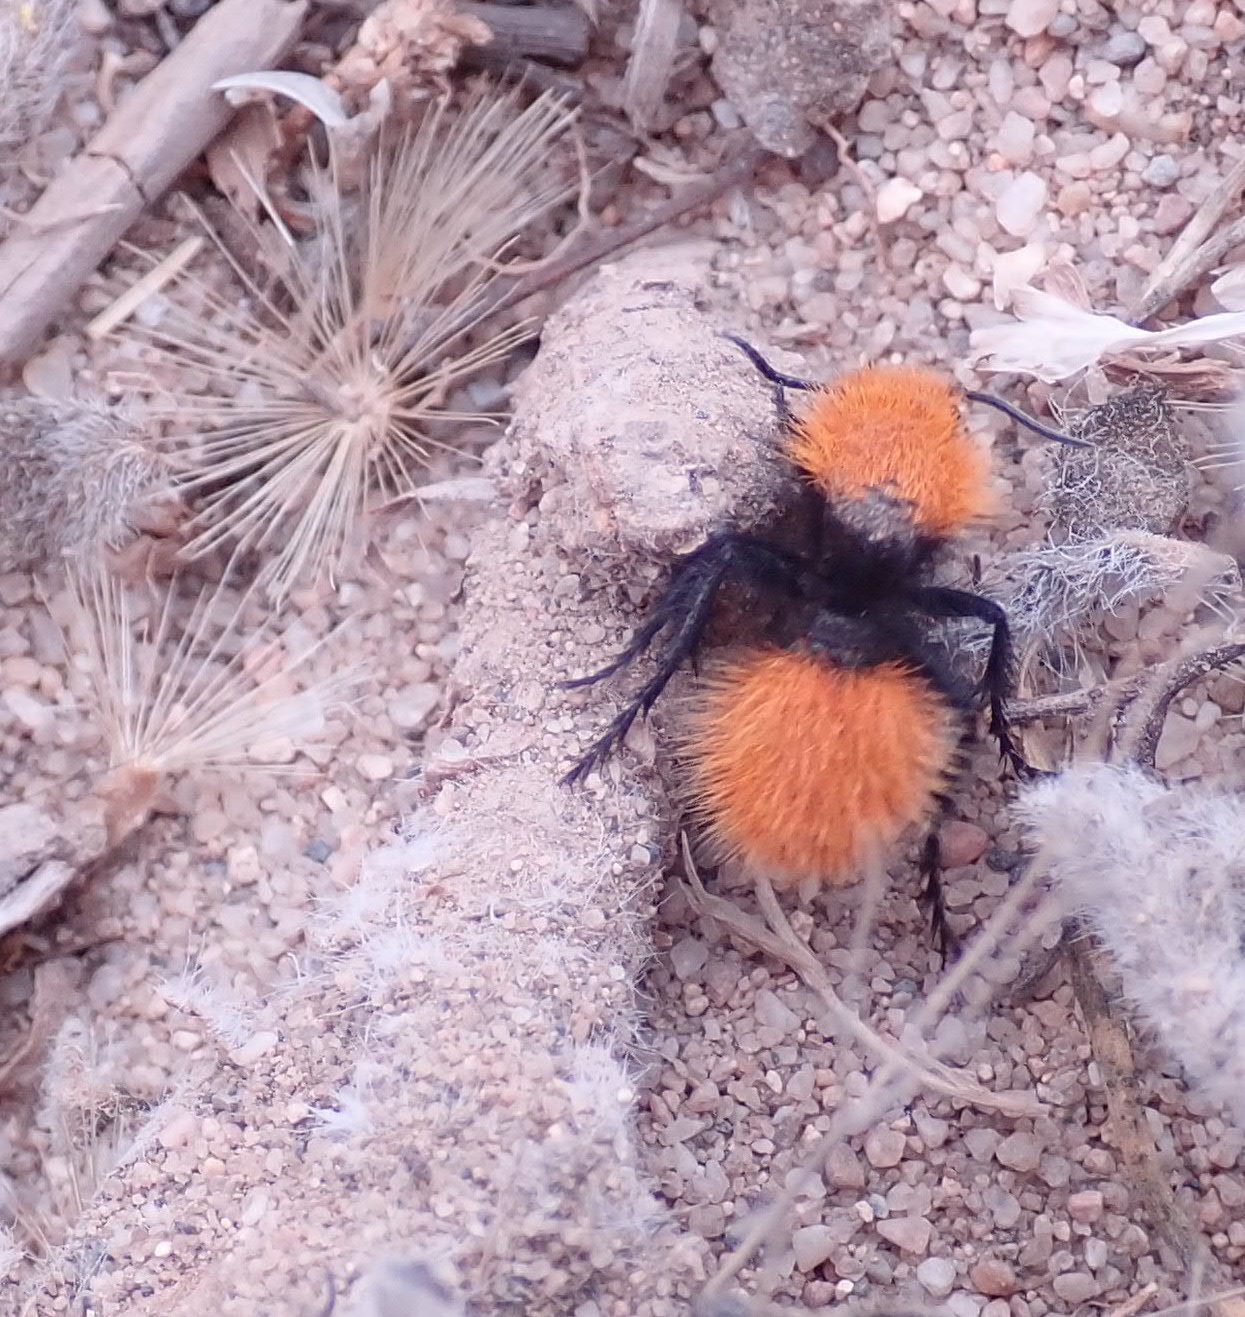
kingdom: Animalia
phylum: Arthropoda
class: Insecta
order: Hymenoptera
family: Mutillidae
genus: Dasymutilla
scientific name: Dasymutilla
